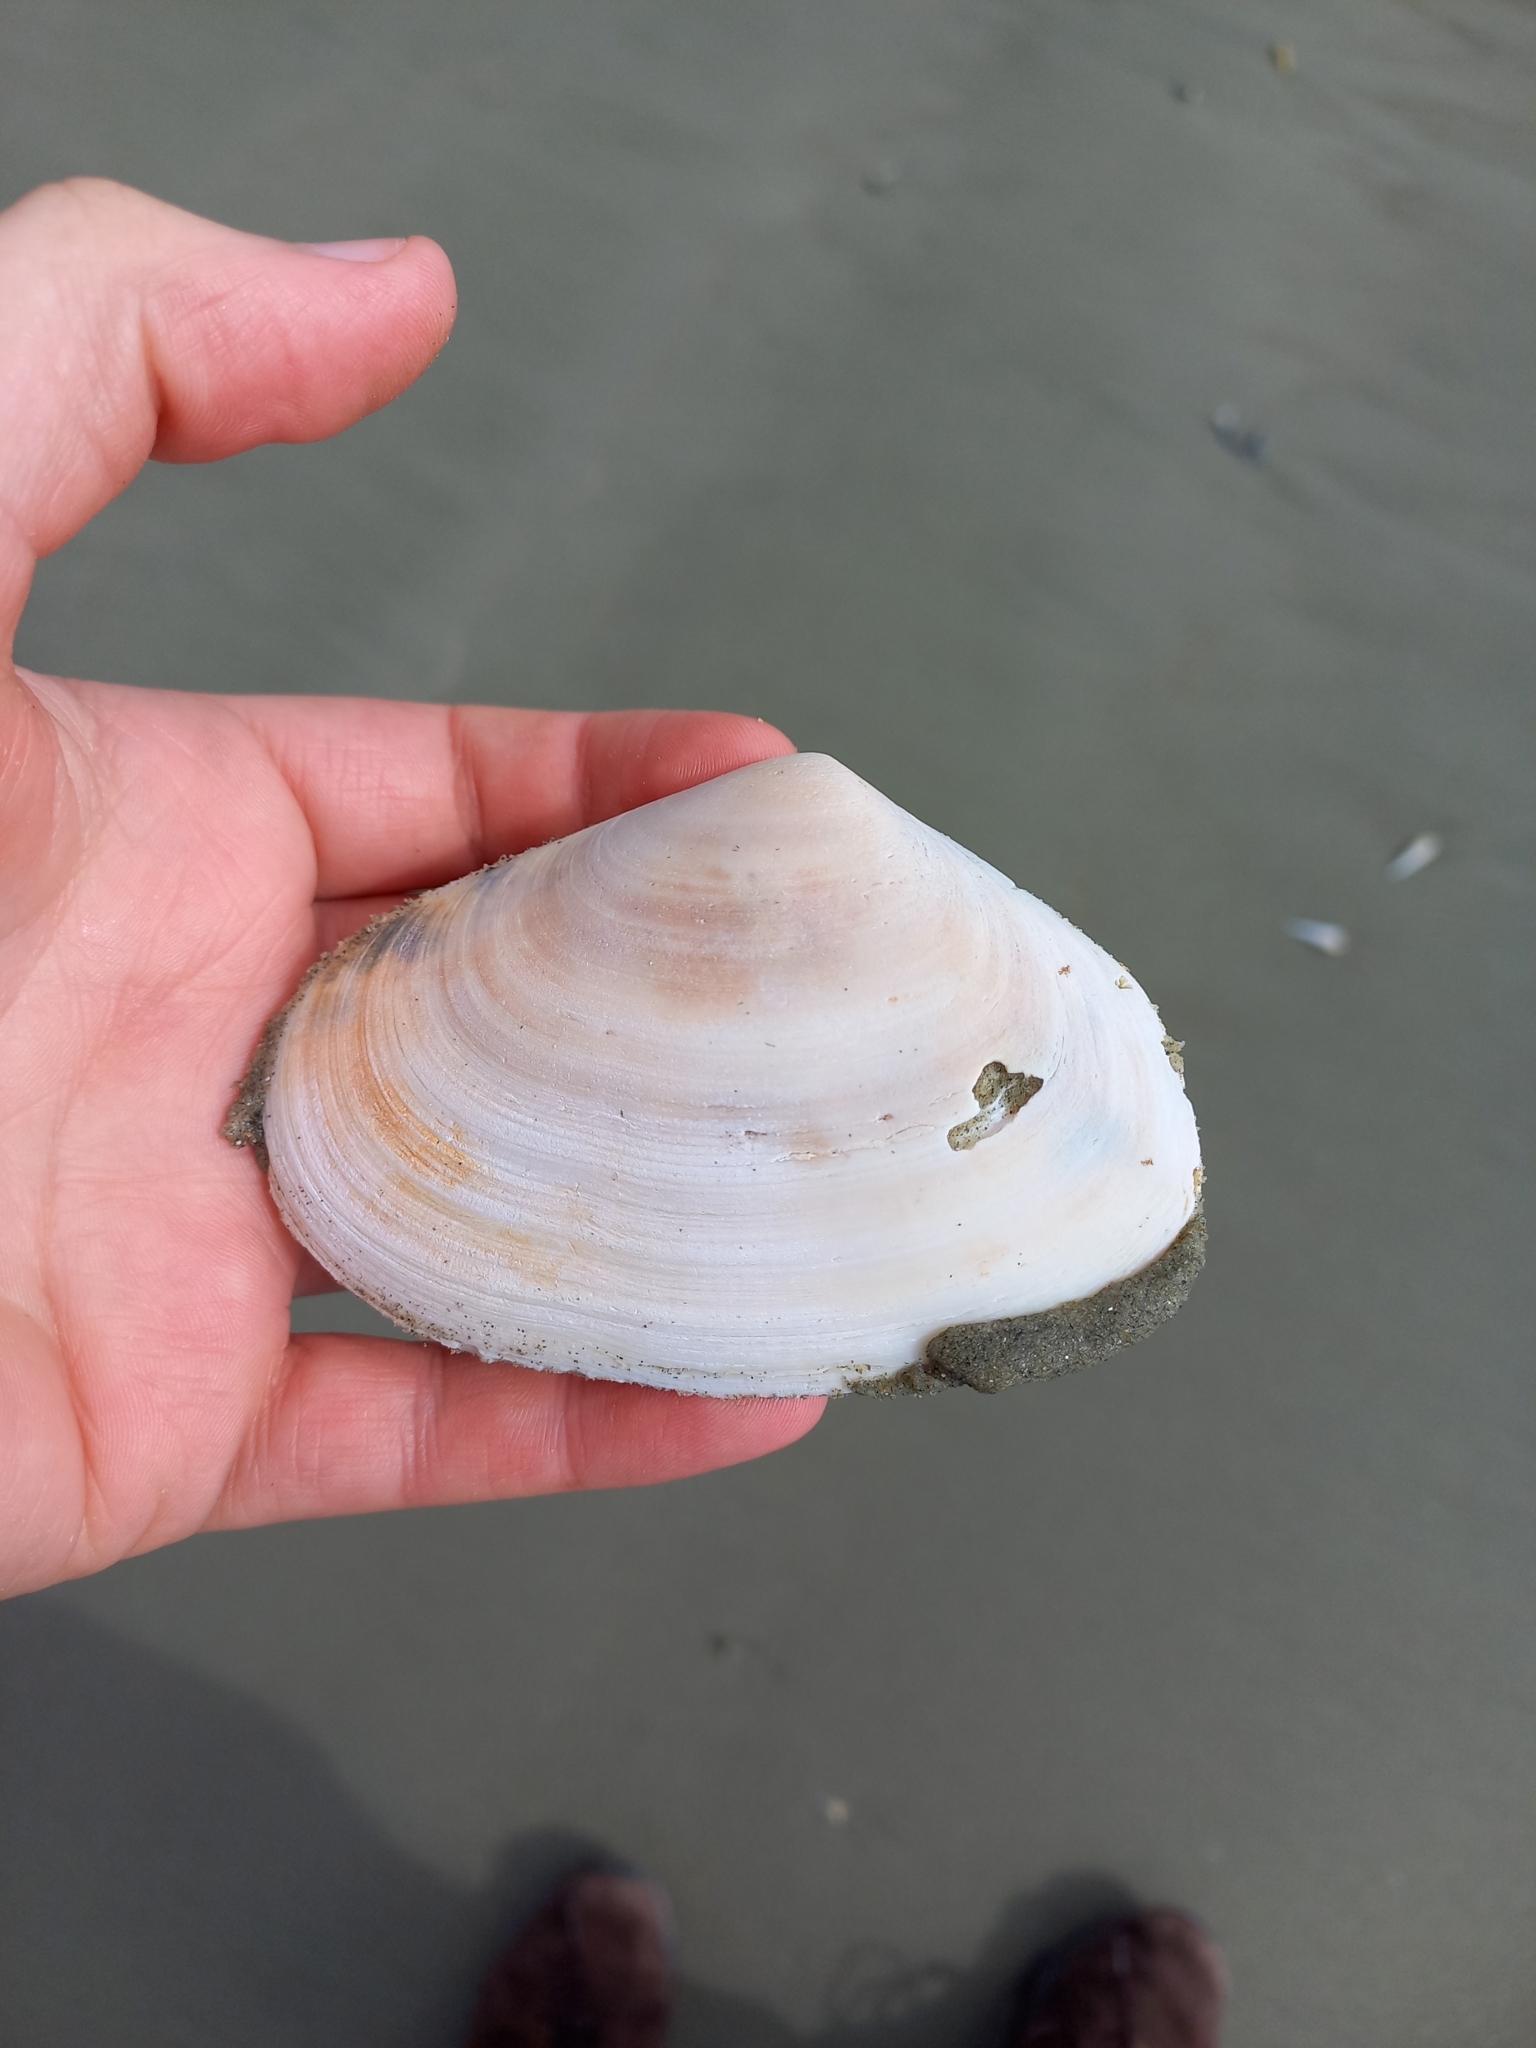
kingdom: Animalia
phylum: Mollusca
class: Bivalvia
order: Venerida
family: Mesodesmatidae
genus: Paphies
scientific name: Paphies donacina
